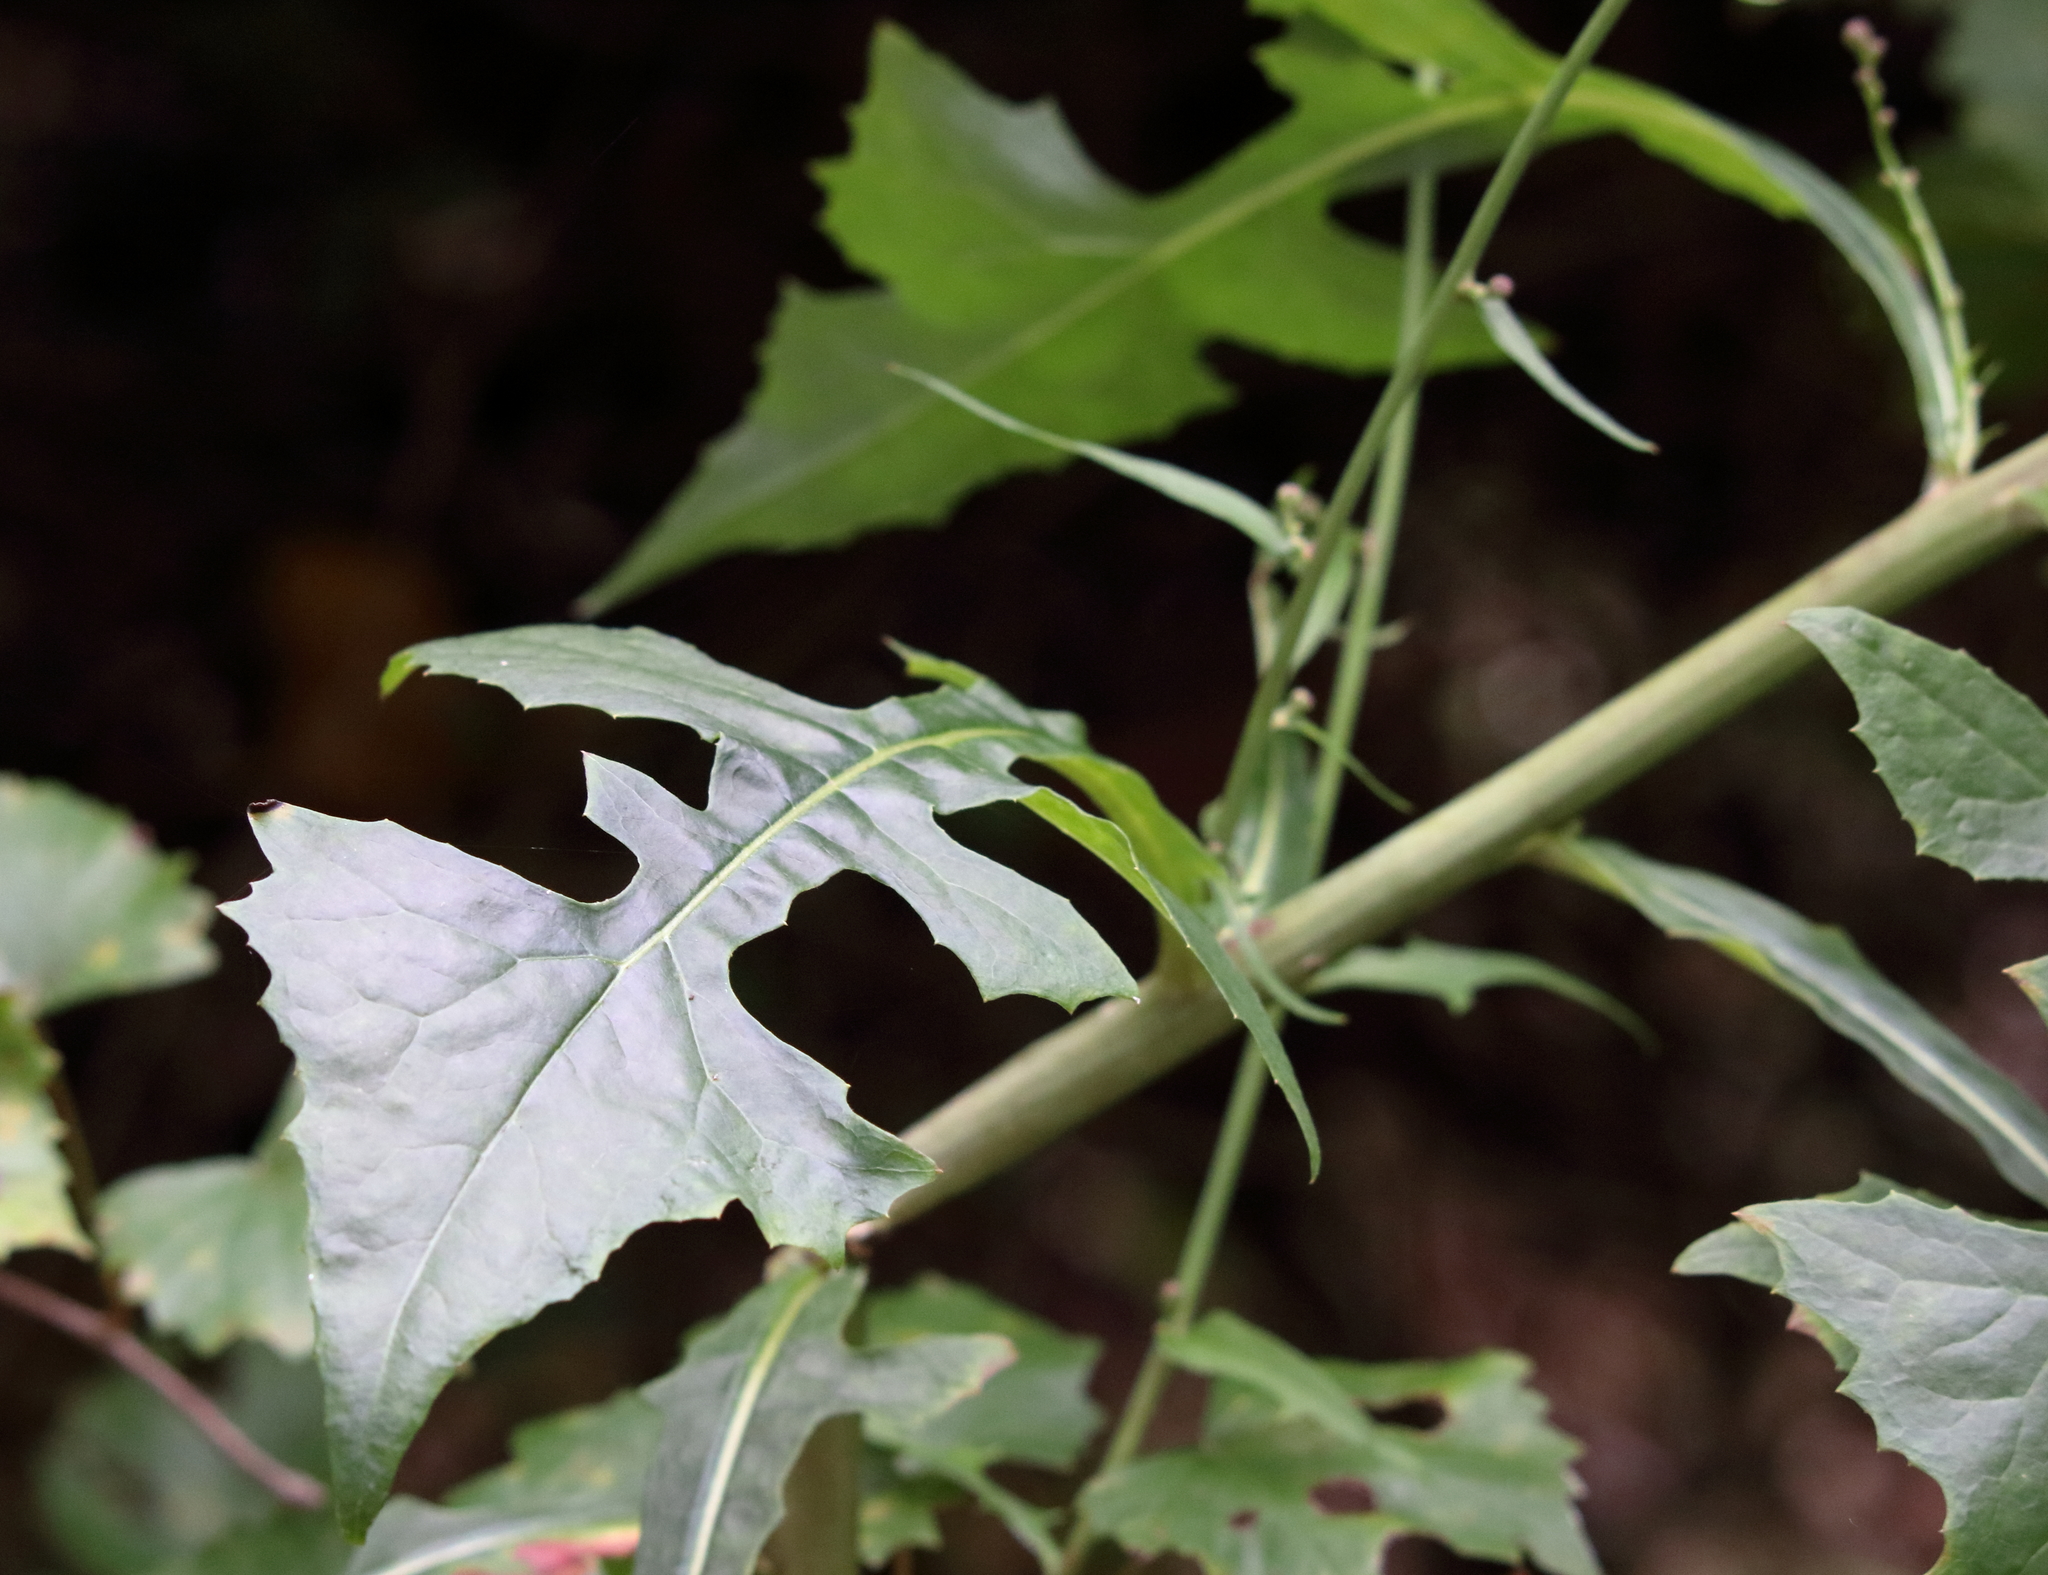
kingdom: Plantae
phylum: Tracheophyta
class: Magnoliopsida
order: Asterales
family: Asteraceae
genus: Lactuca
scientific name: Lactuca floridana
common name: Woodland lettuce
